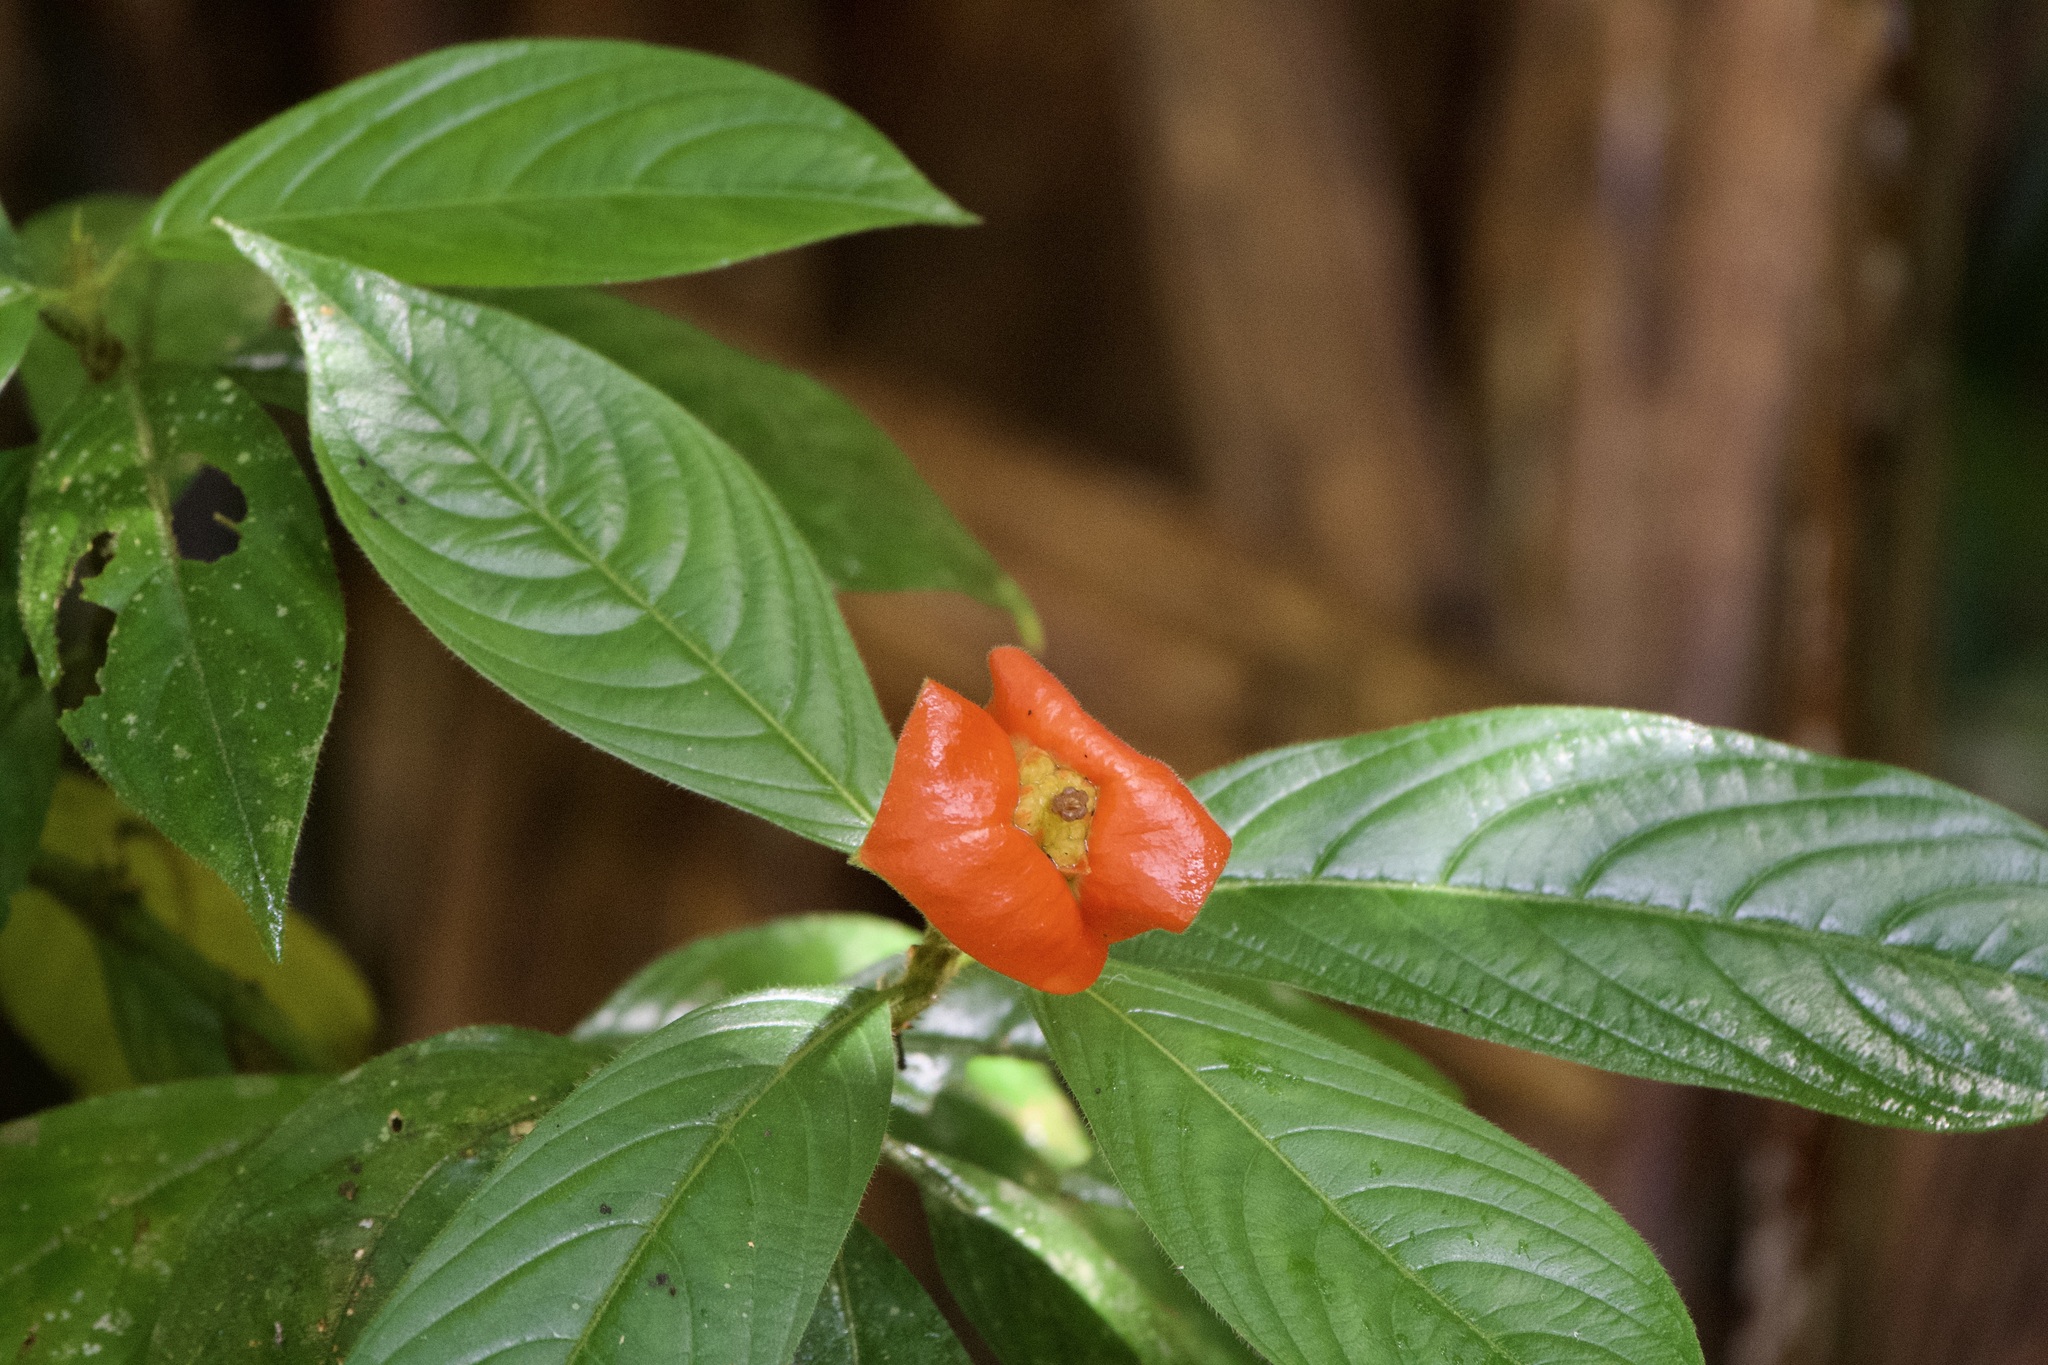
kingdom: Plantae
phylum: Tracheophyta
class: Magnoliopsida
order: Gentianales
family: Rubiaceae
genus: Palicourea
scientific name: Palicourea tomentosa
